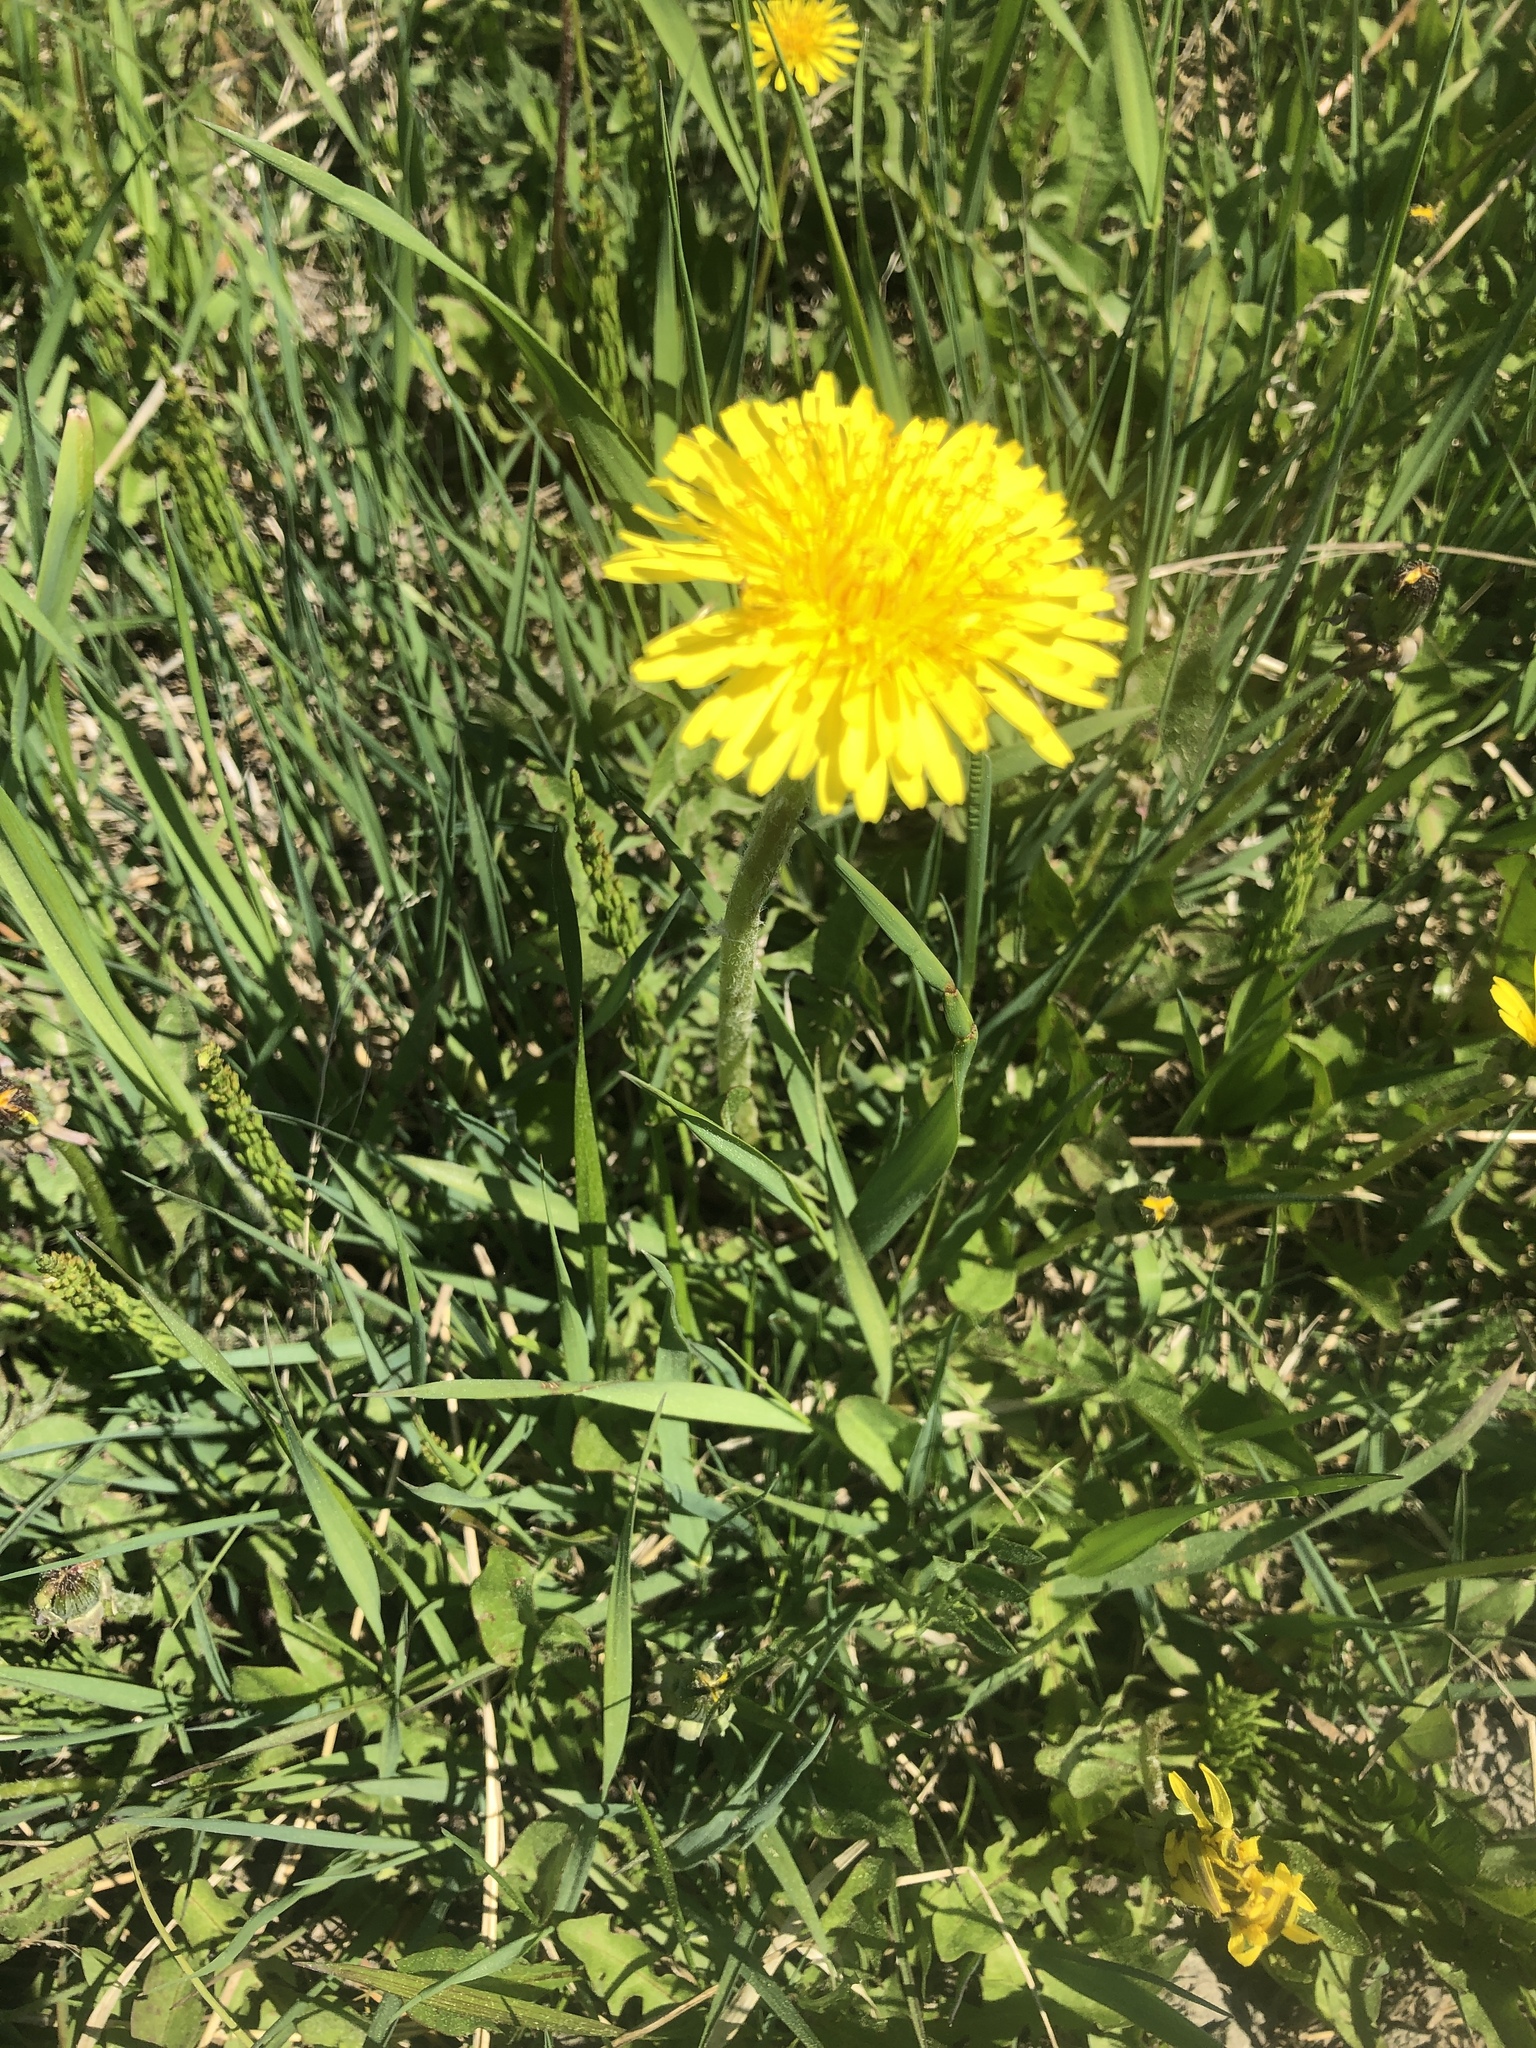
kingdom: Plantae
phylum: Tracheophyta
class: Magnoliopsida
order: Asterales
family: Asteraceae
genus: Taraxacum
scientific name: Taraxacum officinale
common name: Common dandelion
